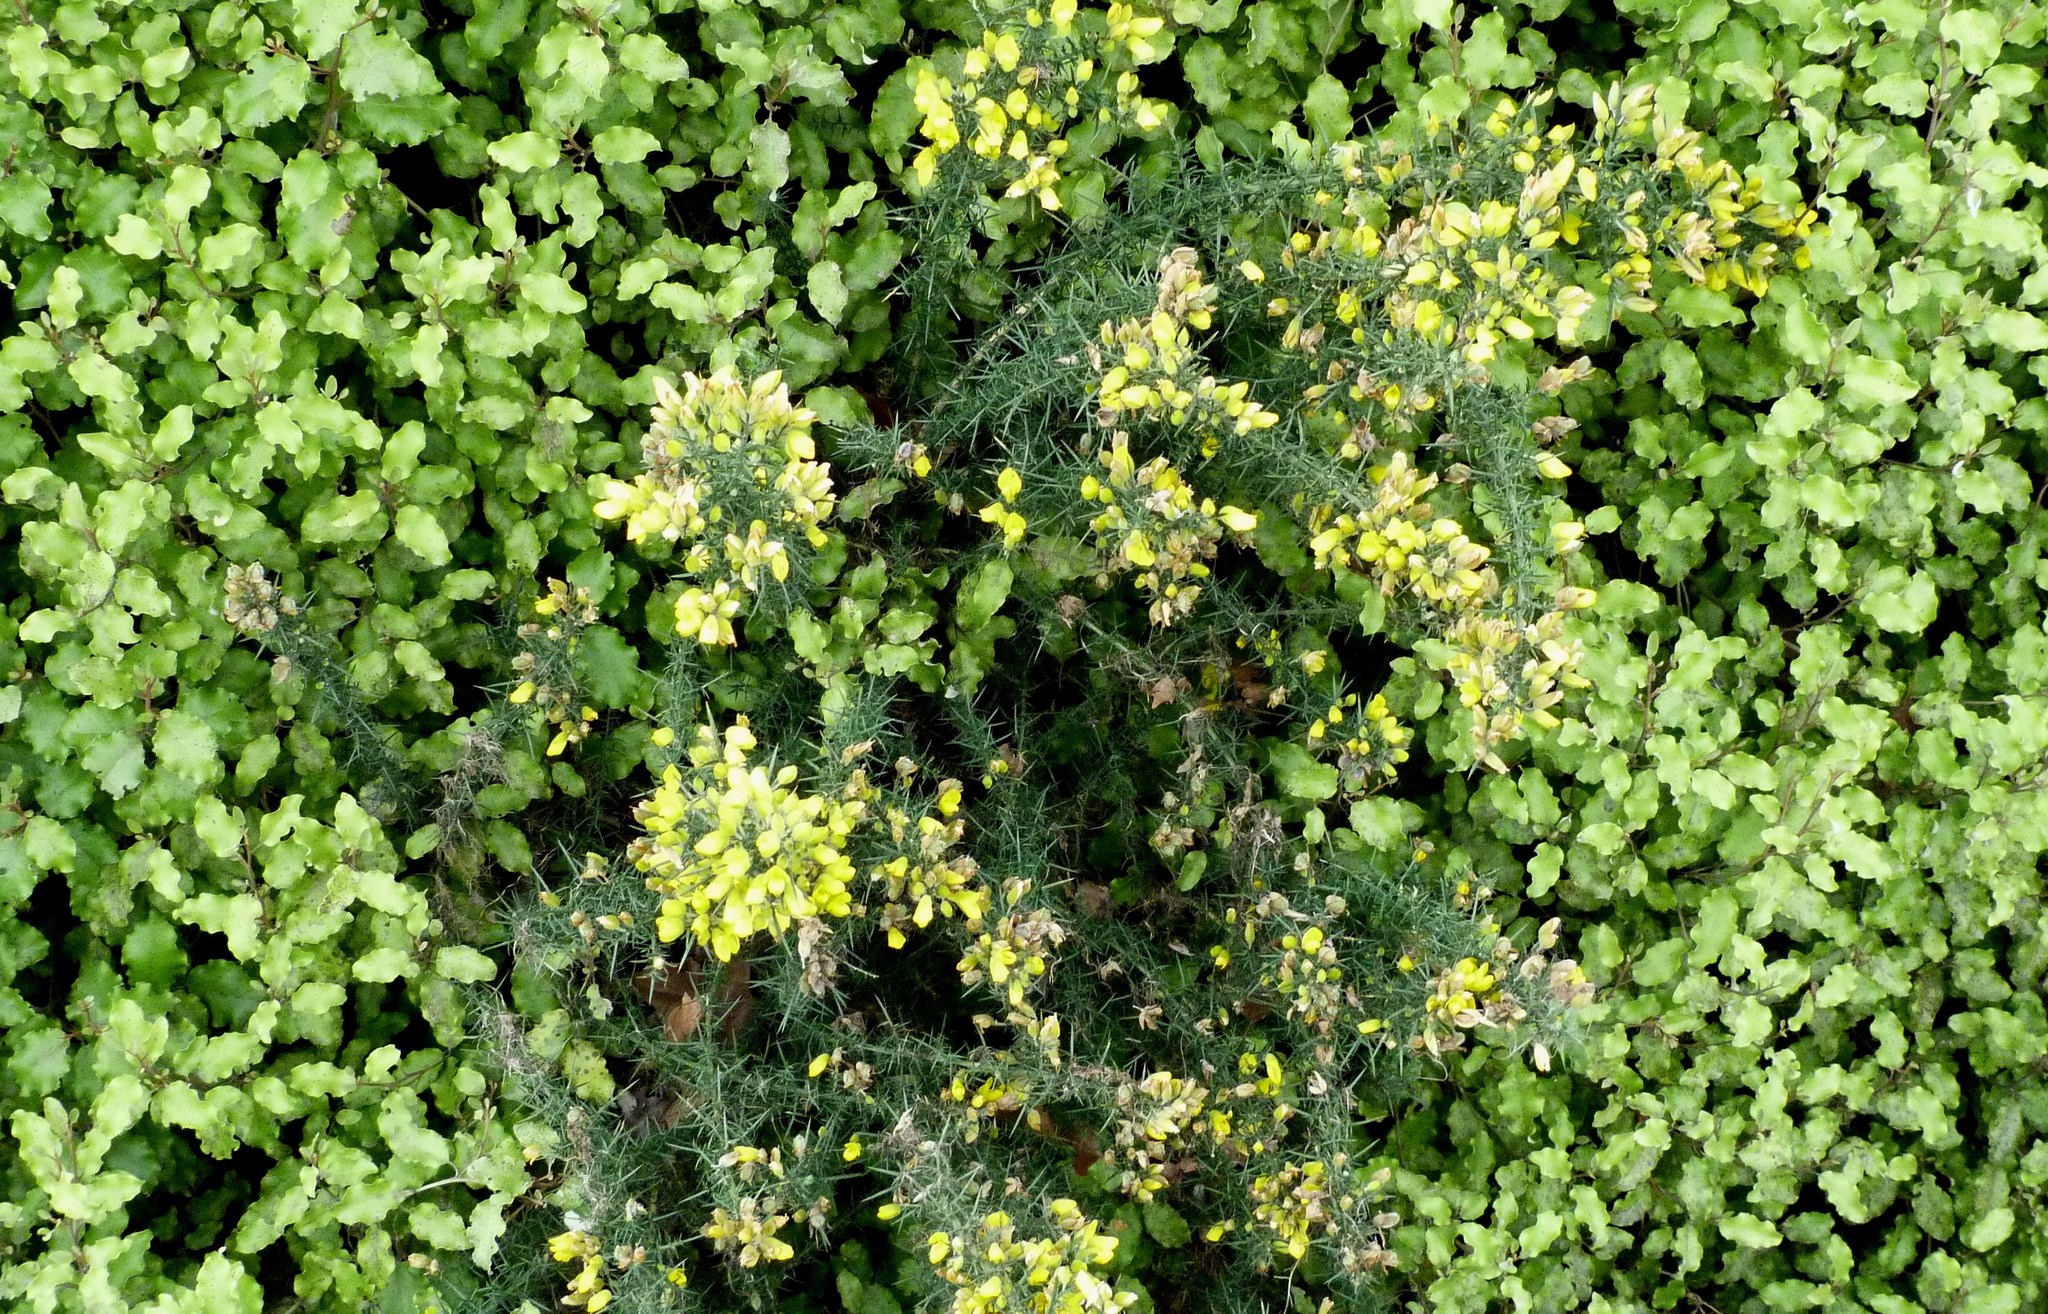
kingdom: Plantae
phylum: Tracheophyta
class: Magnoliopsida
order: Fabales
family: Fabaceae
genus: Ulex
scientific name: Ulex europaeus
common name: Common gorse
